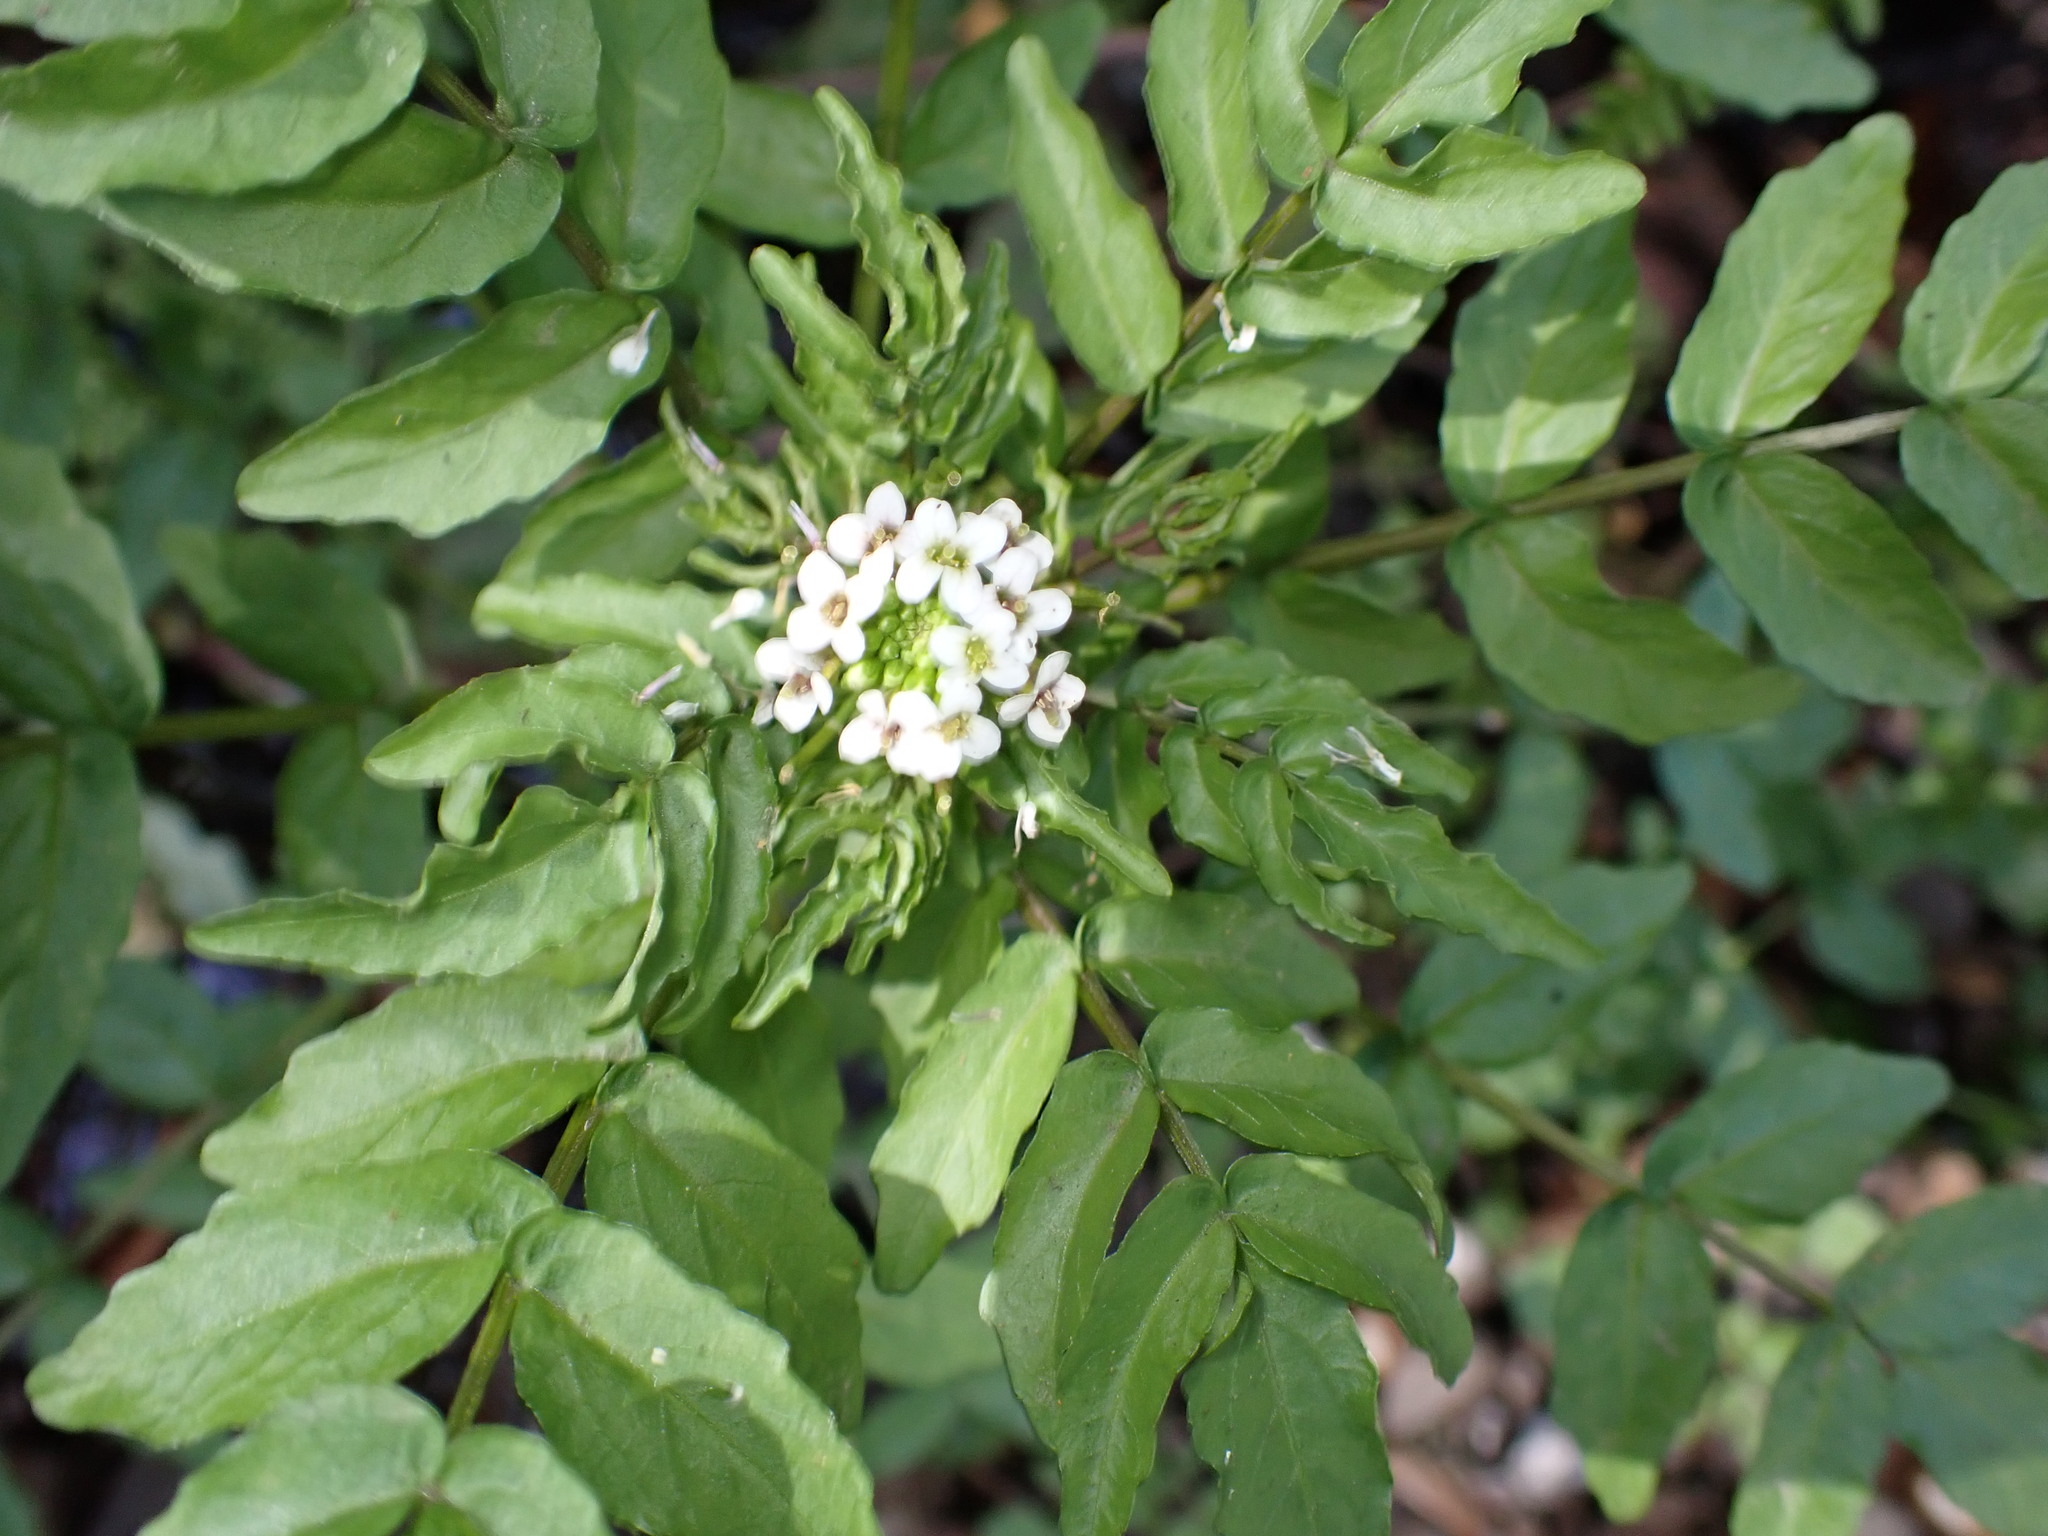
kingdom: Plantae
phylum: Tracheophyta
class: Magnoliopsida
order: Brassicales
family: Brassicaceae
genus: Nasturtium
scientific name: Nasturtium officinale
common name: Watercress
